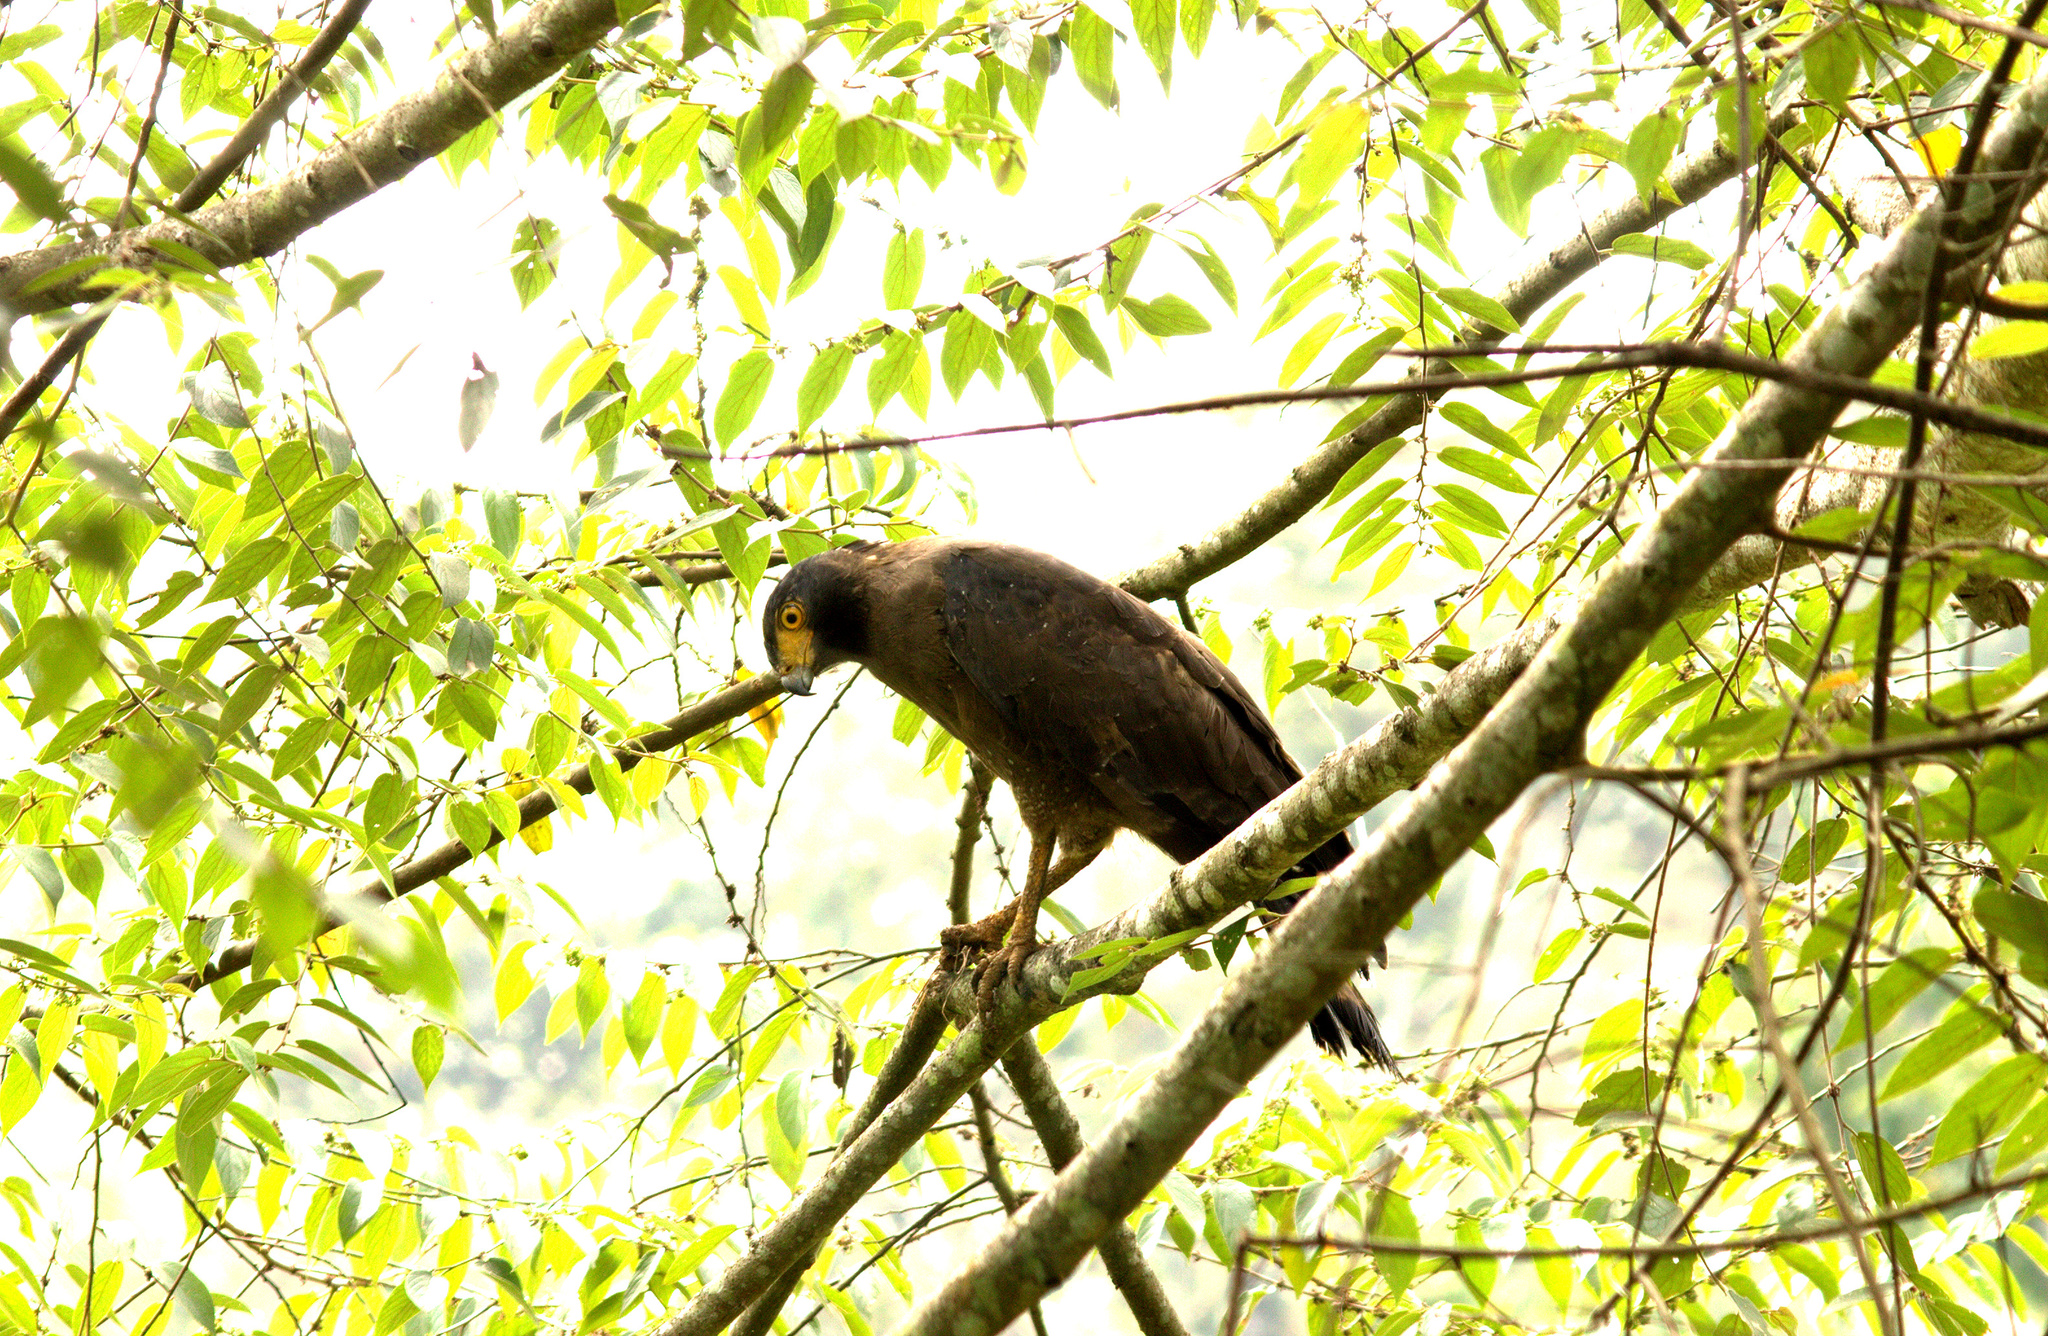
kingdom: Animalia
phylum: Chordata
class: Aves
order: Accipitriformes
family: Accipitridae
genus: Spilornis
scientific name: Spilornis cheela
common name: Crested serpent eagle
